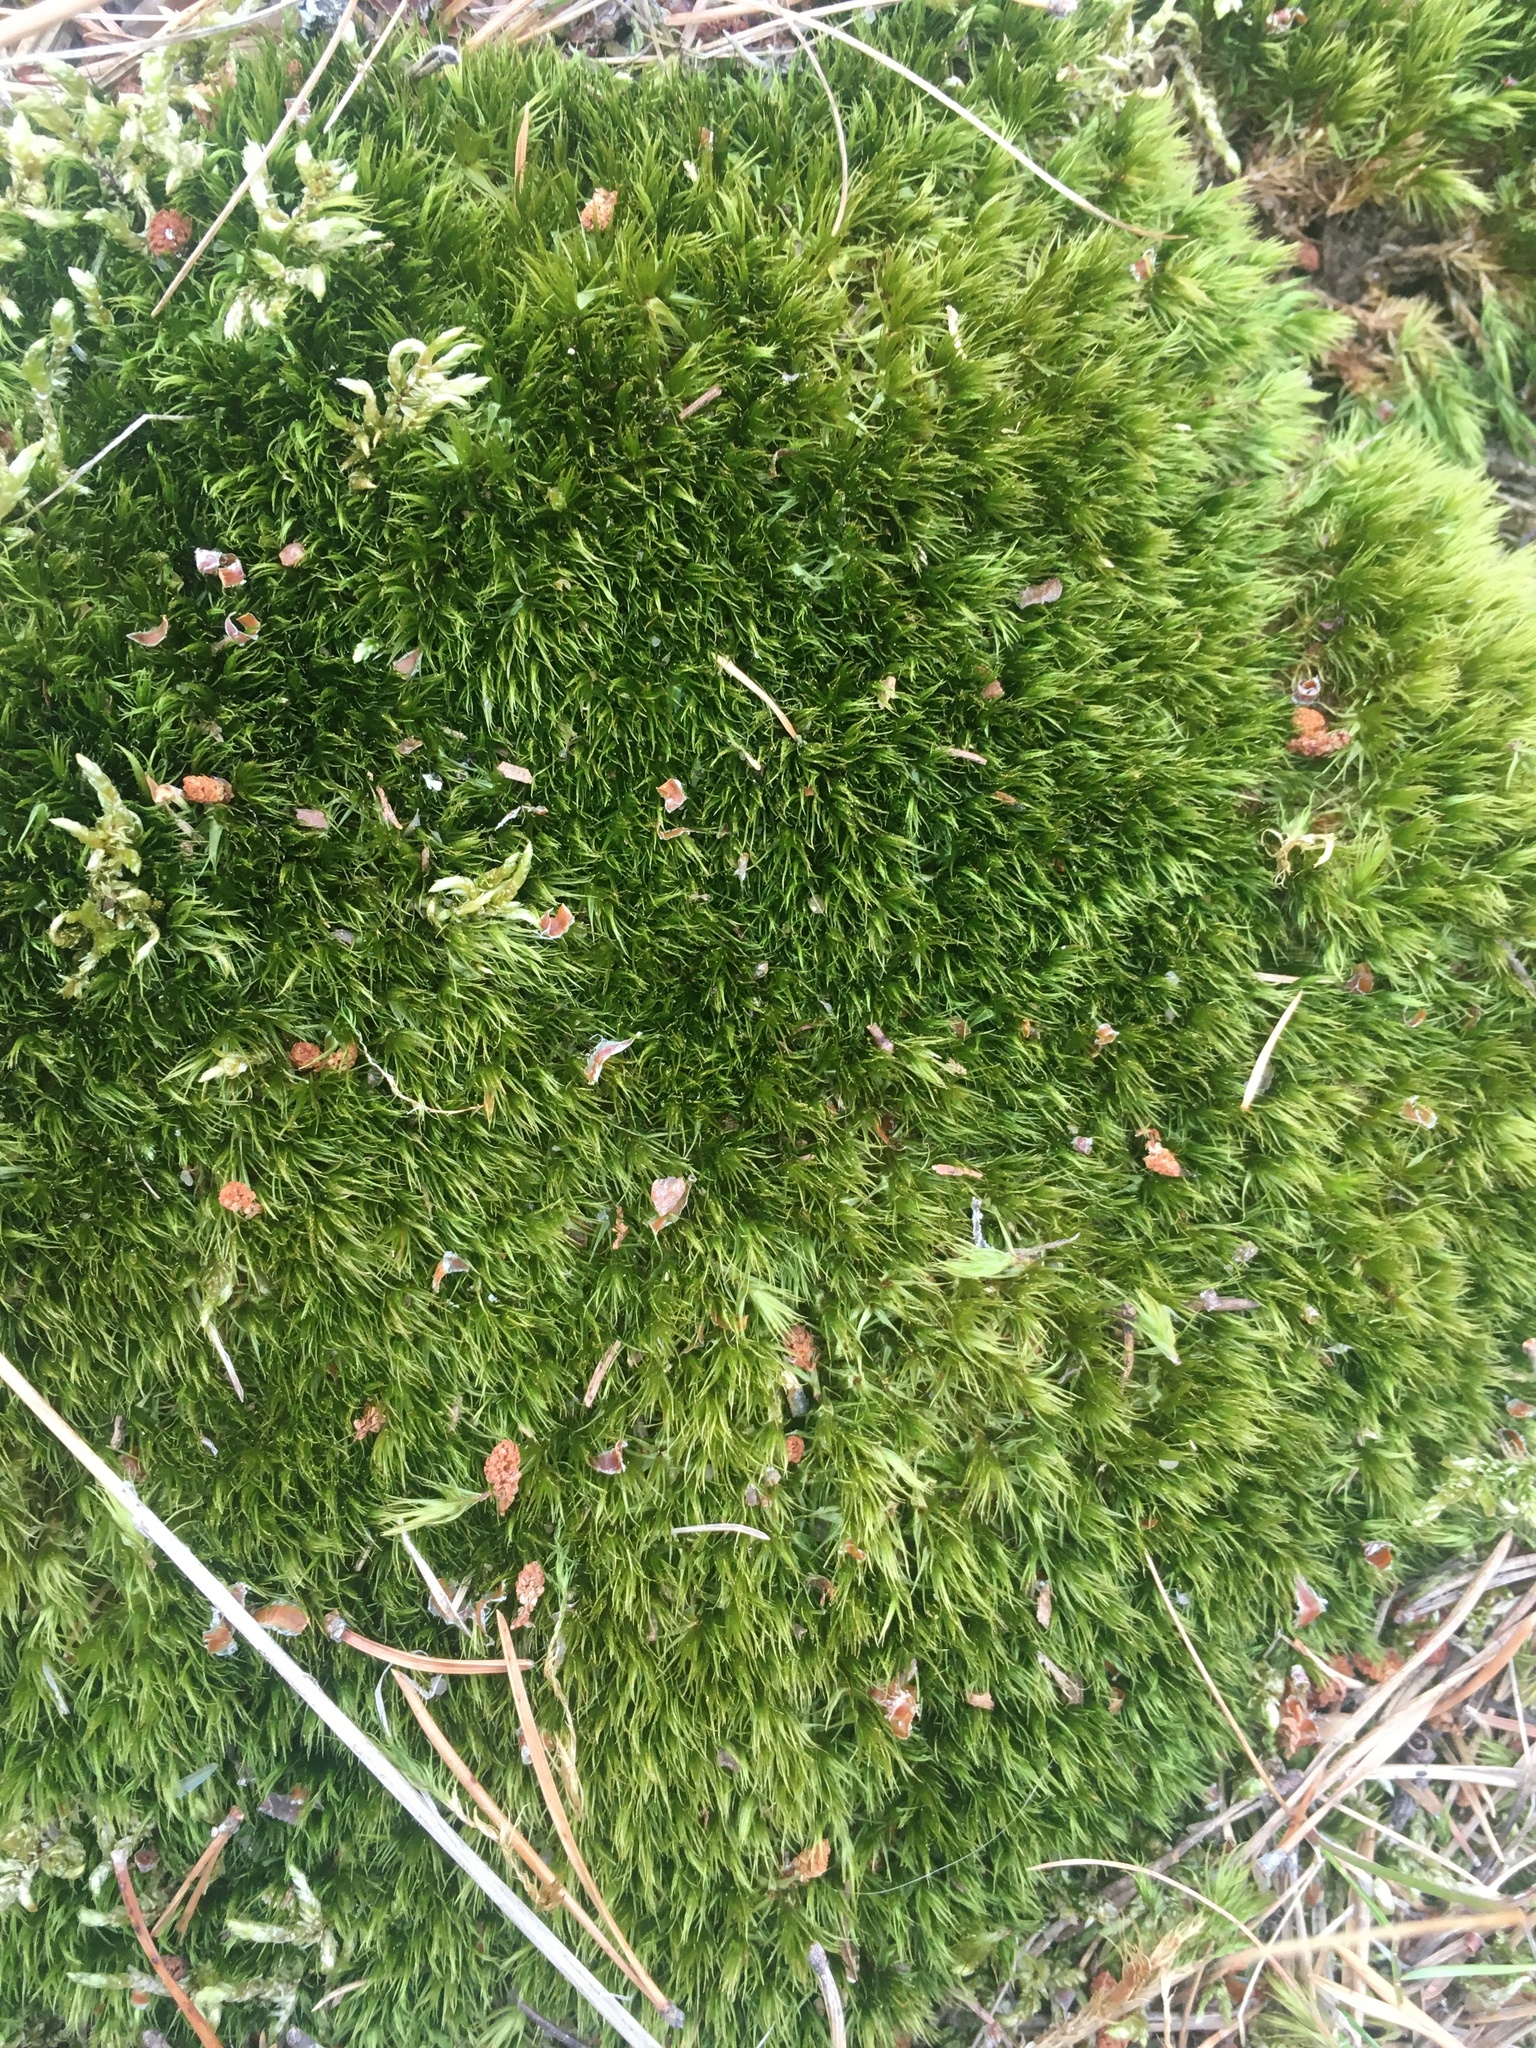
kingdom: Plantae
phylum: Bryophyta
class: Bryopsida
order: Dicranales
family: Dicranaceae
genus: Dicranum
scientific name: Dicranum scoparium
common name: Broom fork-moss
